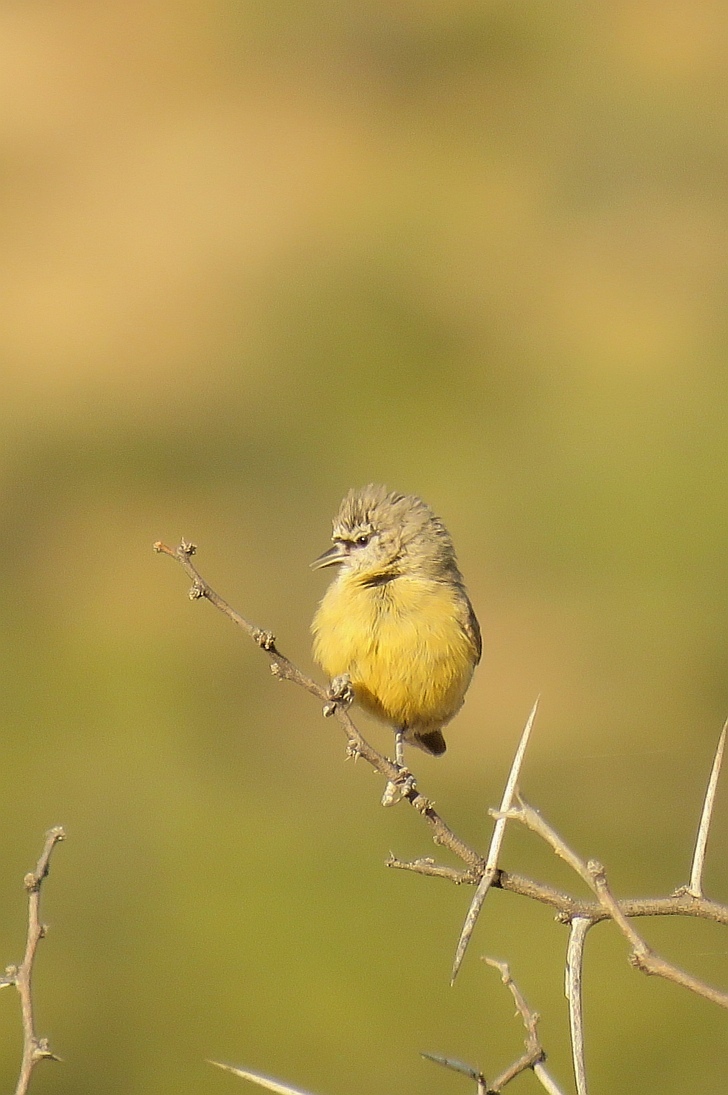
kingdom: Animalia
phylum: Chordata
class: Aves
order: Passeriformes
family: Remizidae
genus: Anthoscopus
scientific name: Anthoscopus minutus
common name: Cape penduline tit
